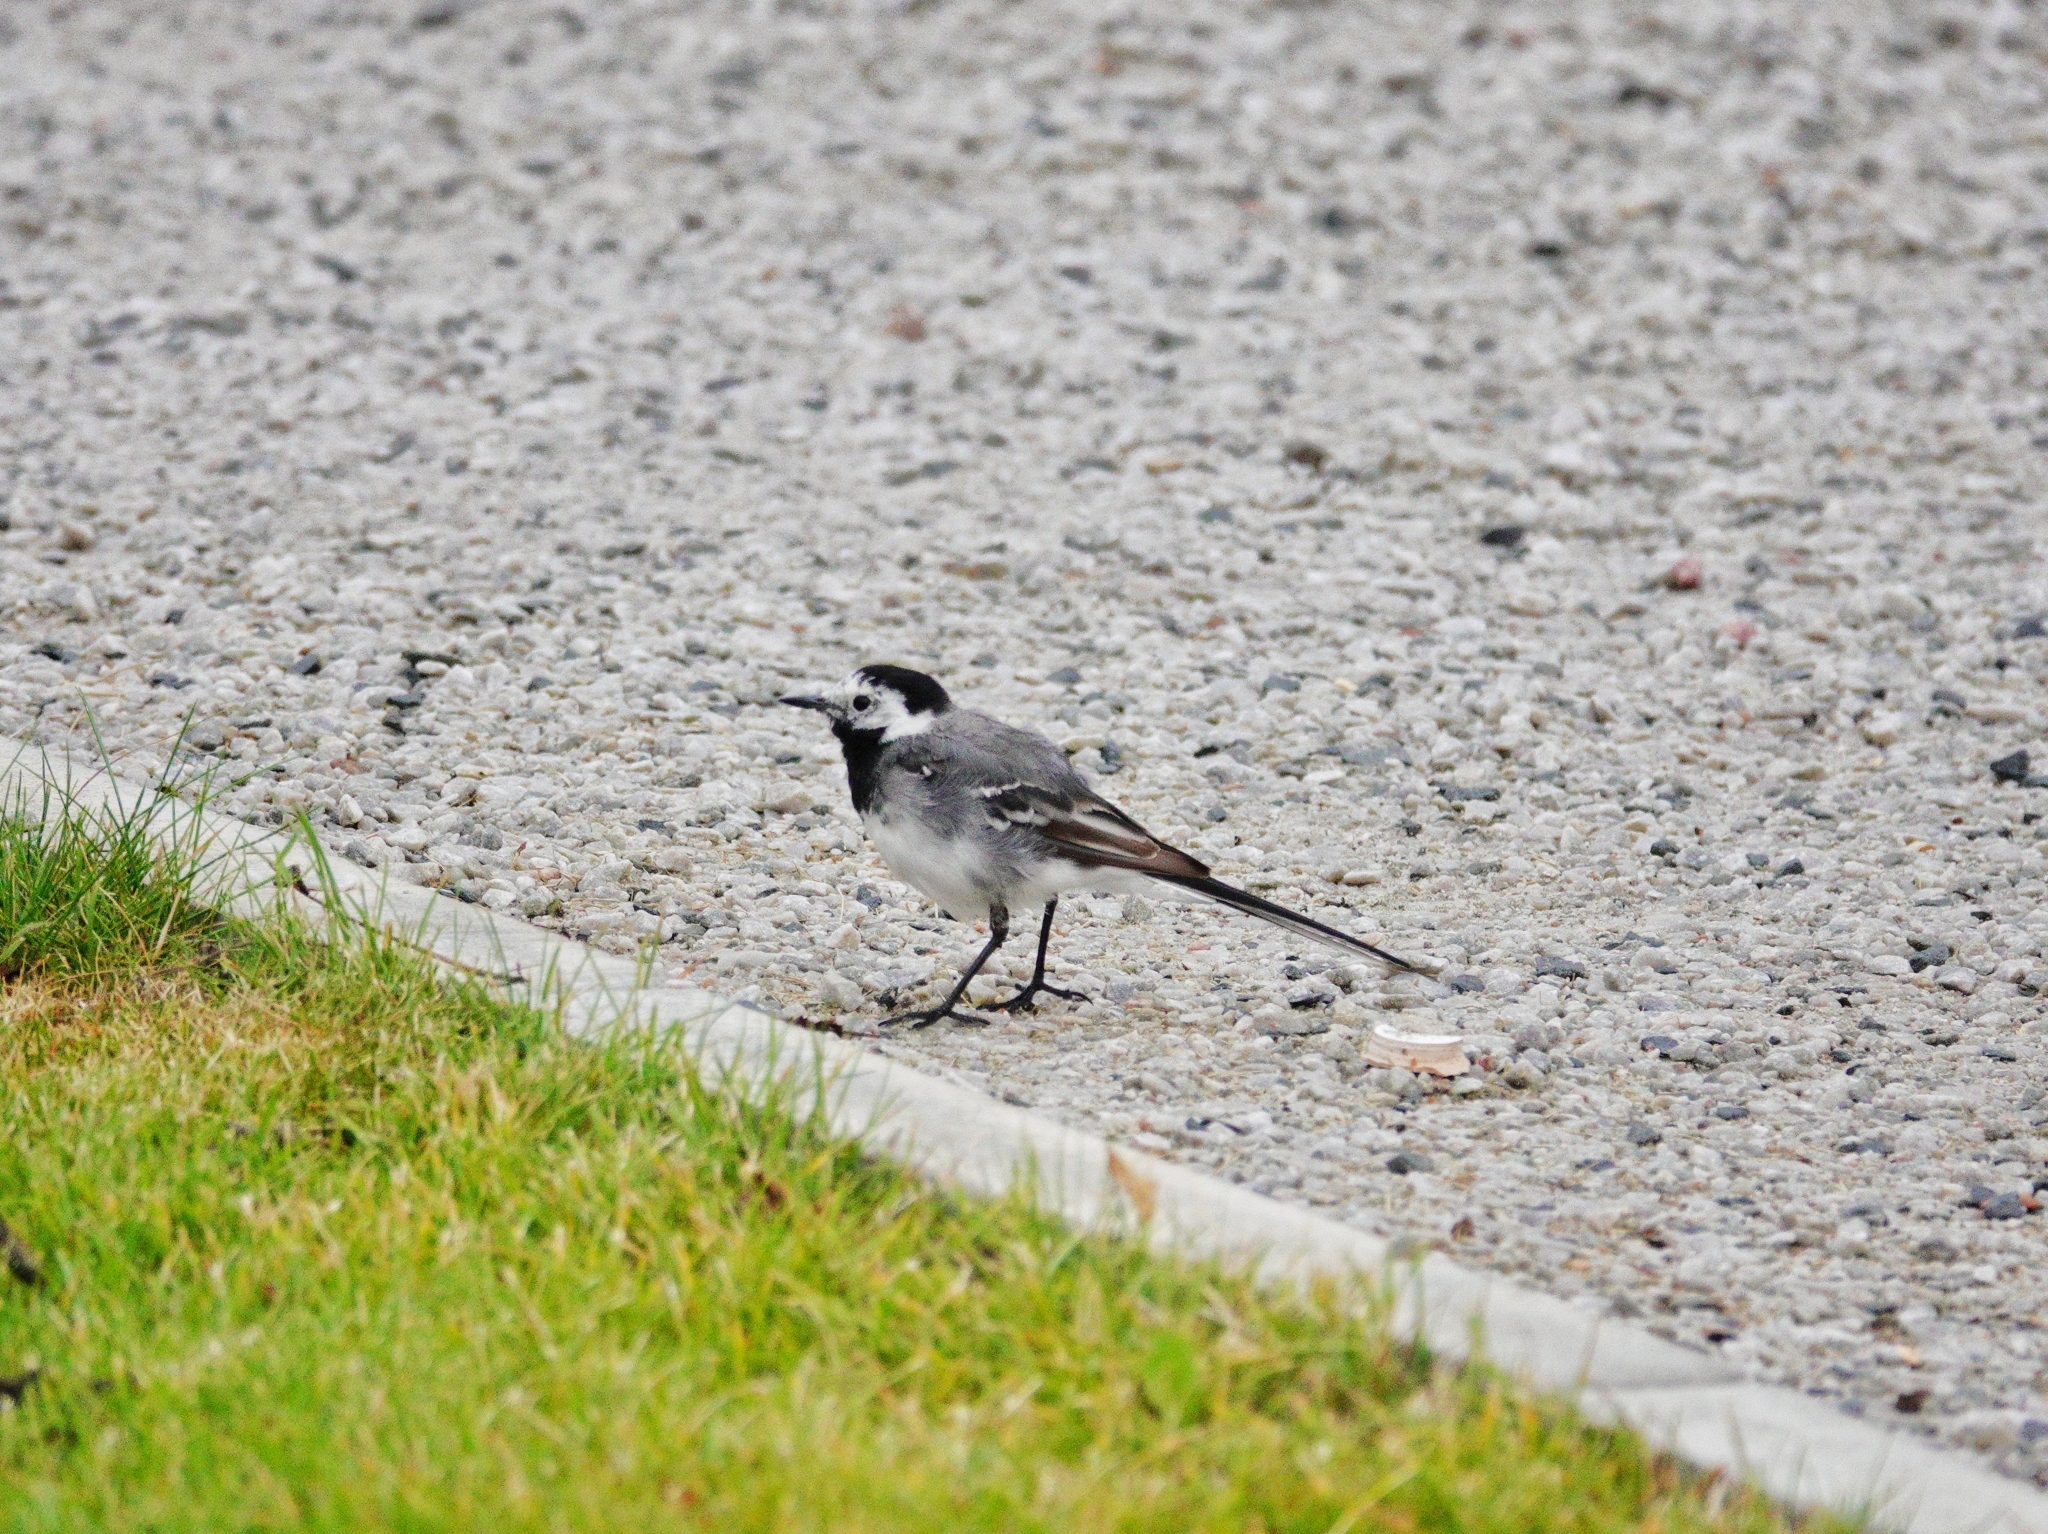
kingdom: Animalia
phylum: Chordata
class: Aves
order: Passeriformes
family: Motacillidae
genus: Motacilla
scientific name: Motacilla alba
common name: White wagtail
